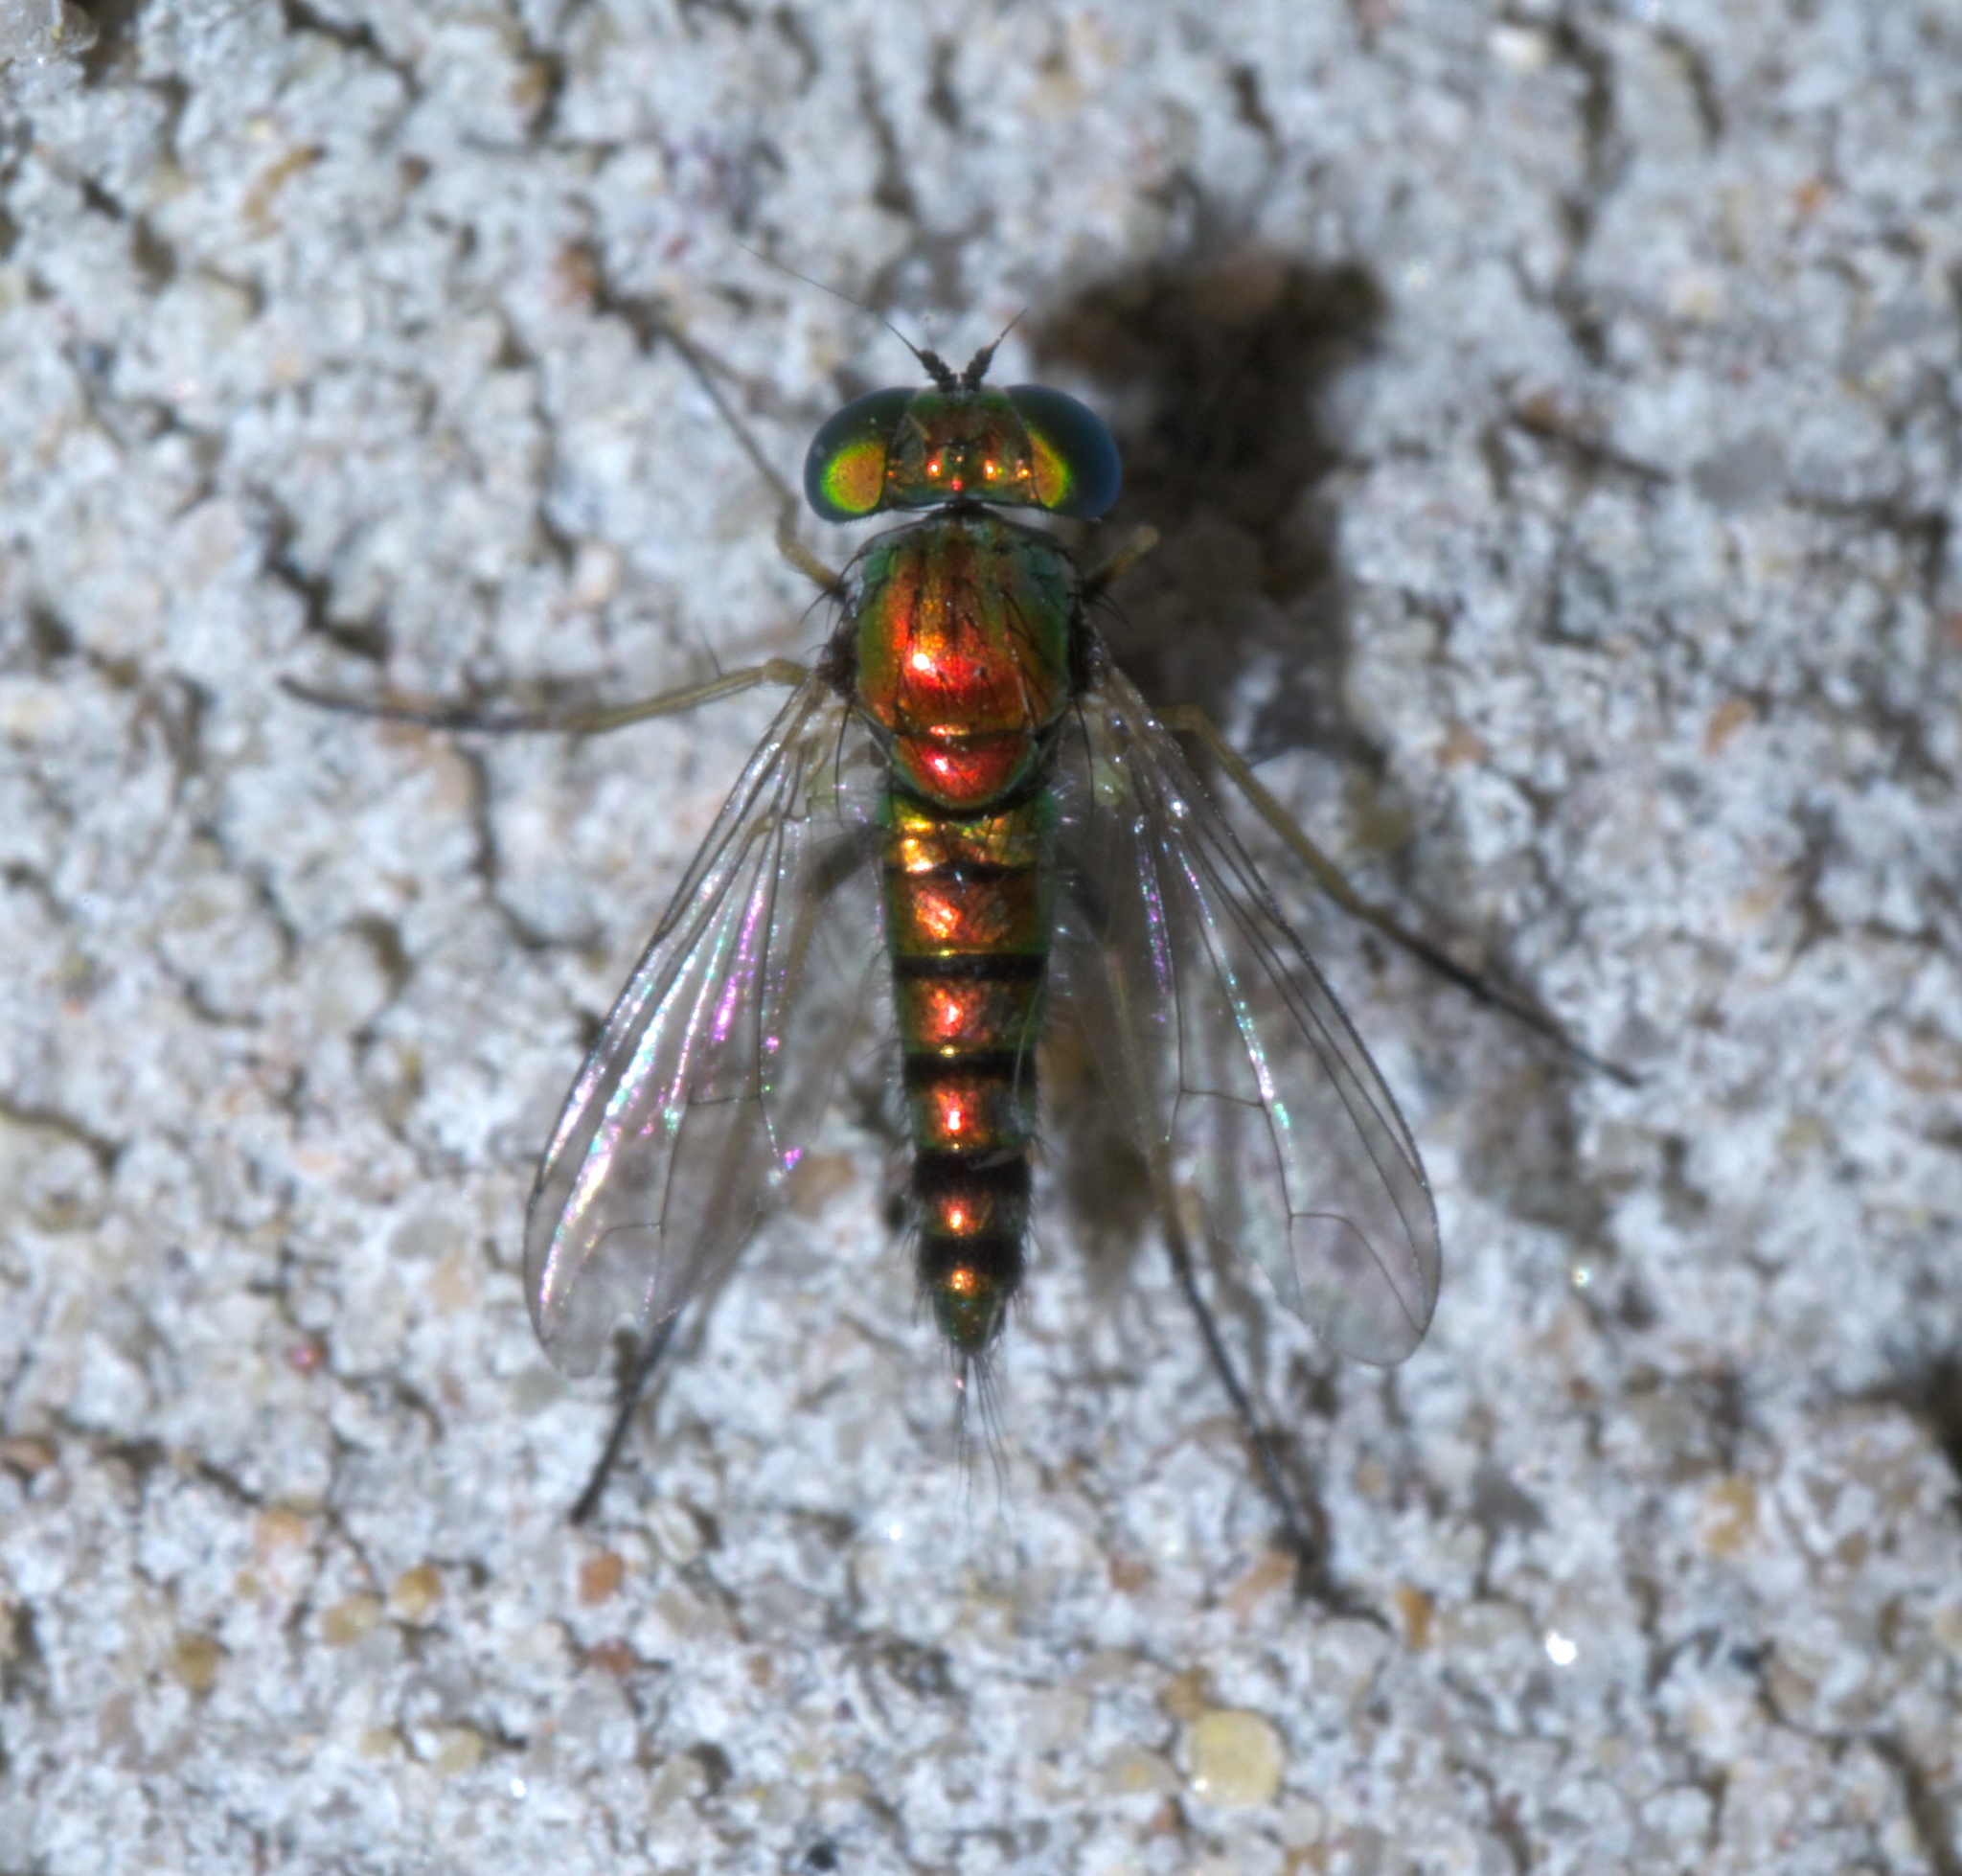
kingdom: Animalia
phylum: Arthropoda
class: Insecta
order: Diptera
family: Dolichopodidae
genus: Condylostylus
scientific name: Condylostylus caudatus
